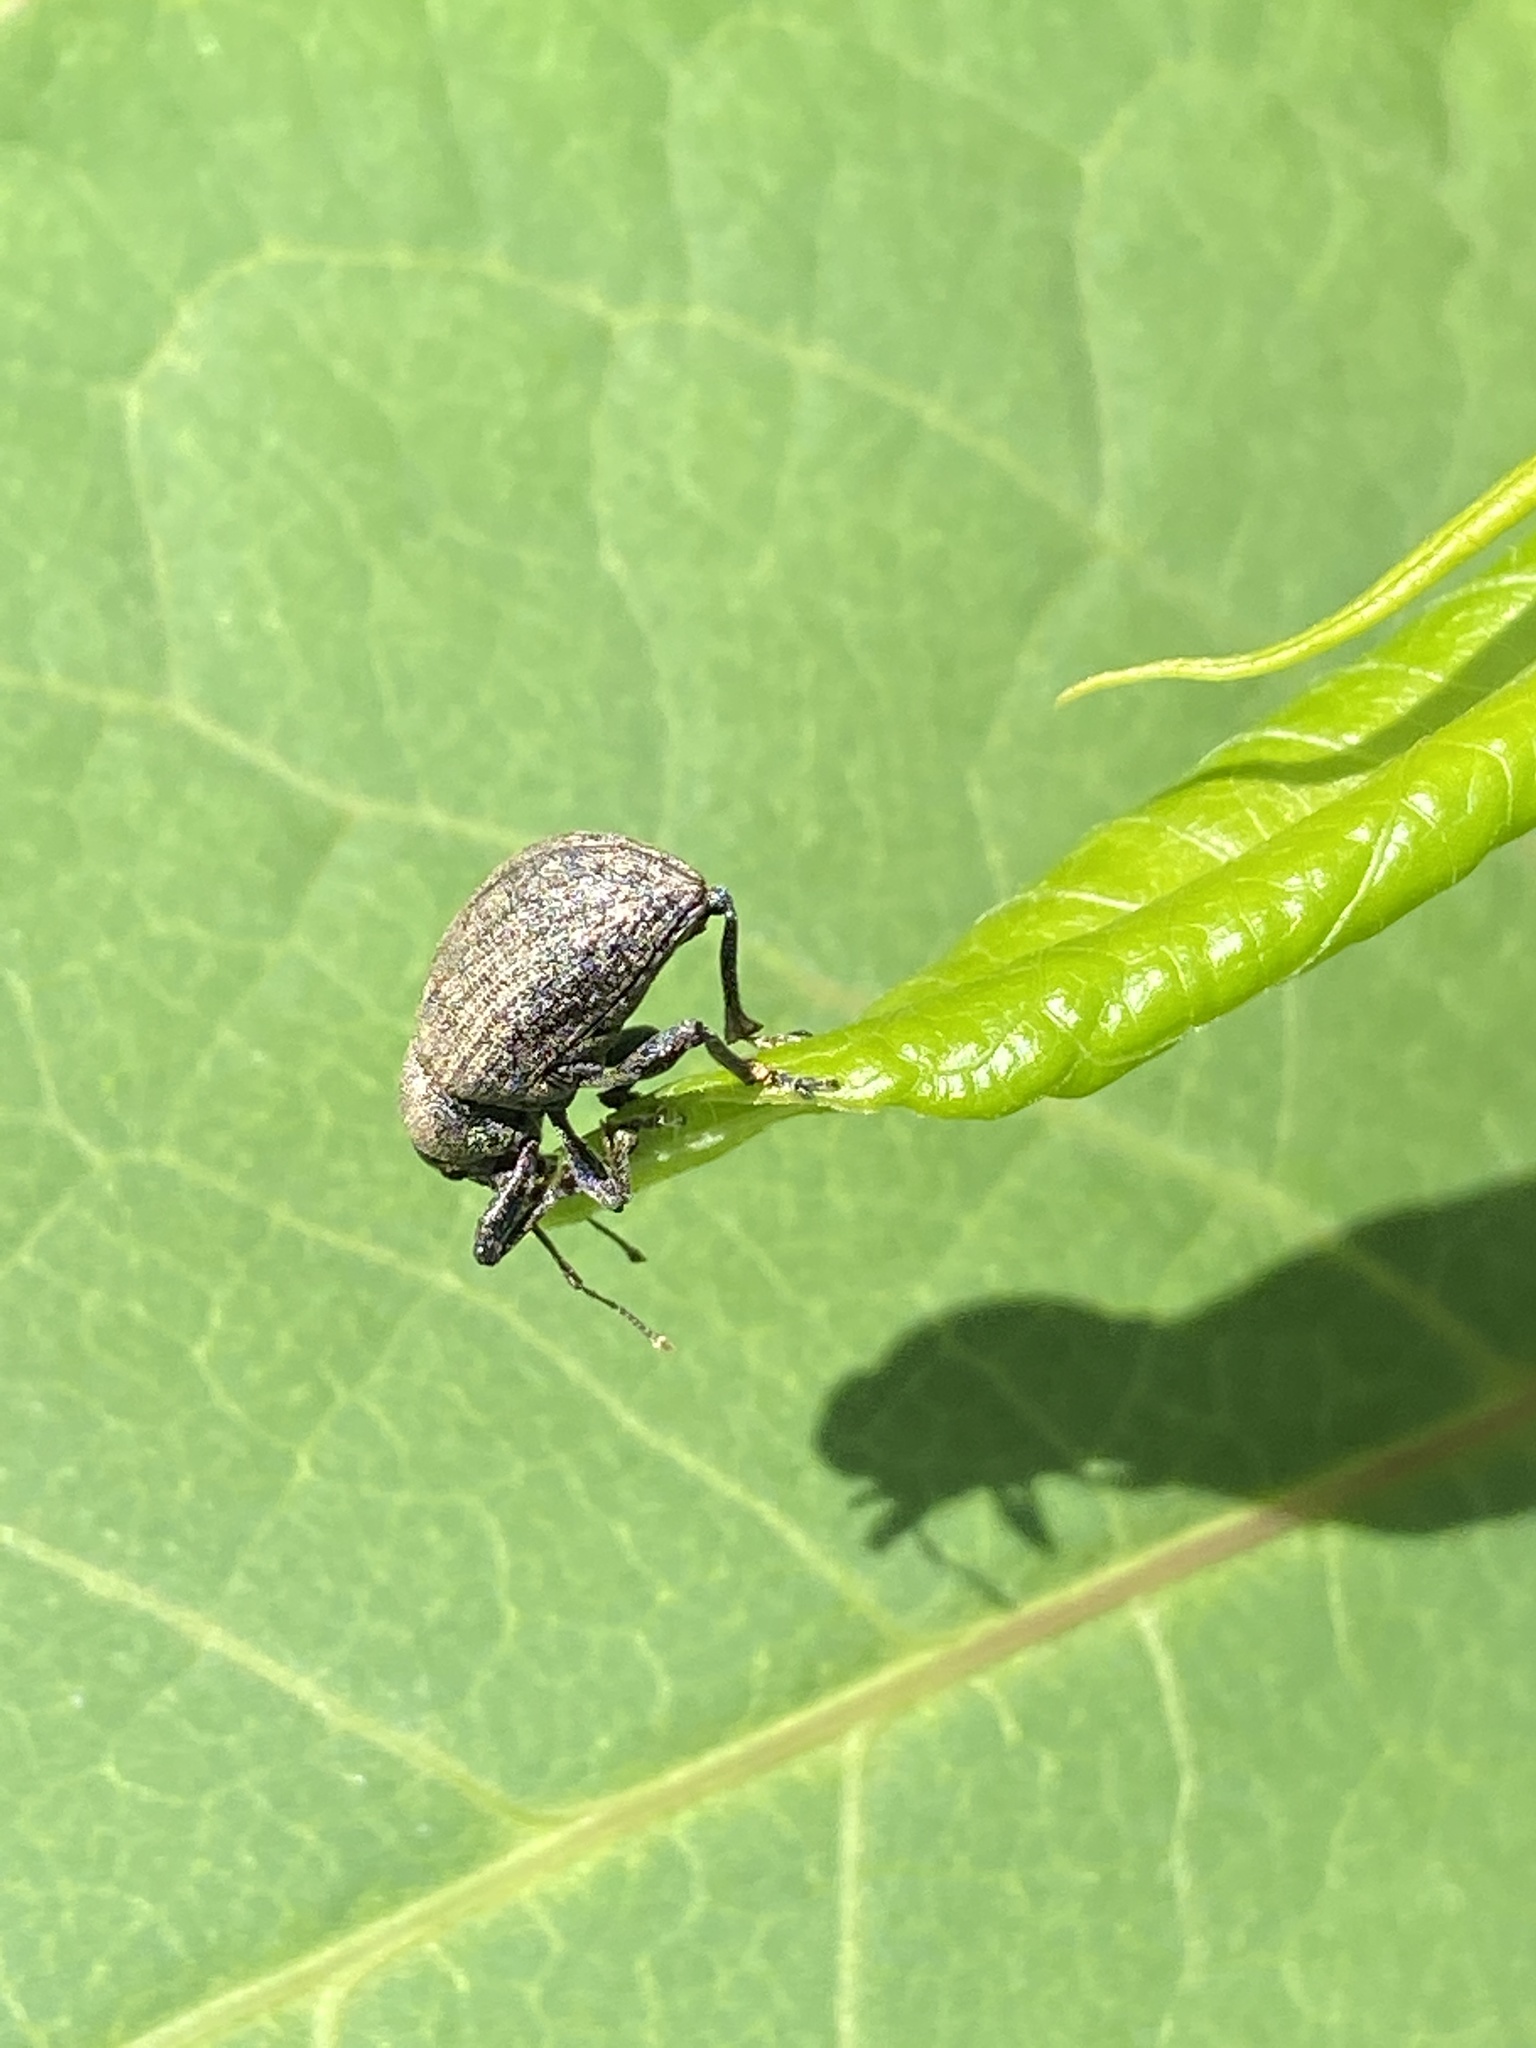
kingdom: Animalia
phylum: Arthropoda
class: Insecta
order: Coleoptera
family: Curculionidae
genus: Otiorhynchus
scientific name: Otiorhynchus ligustici
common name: Weevil
